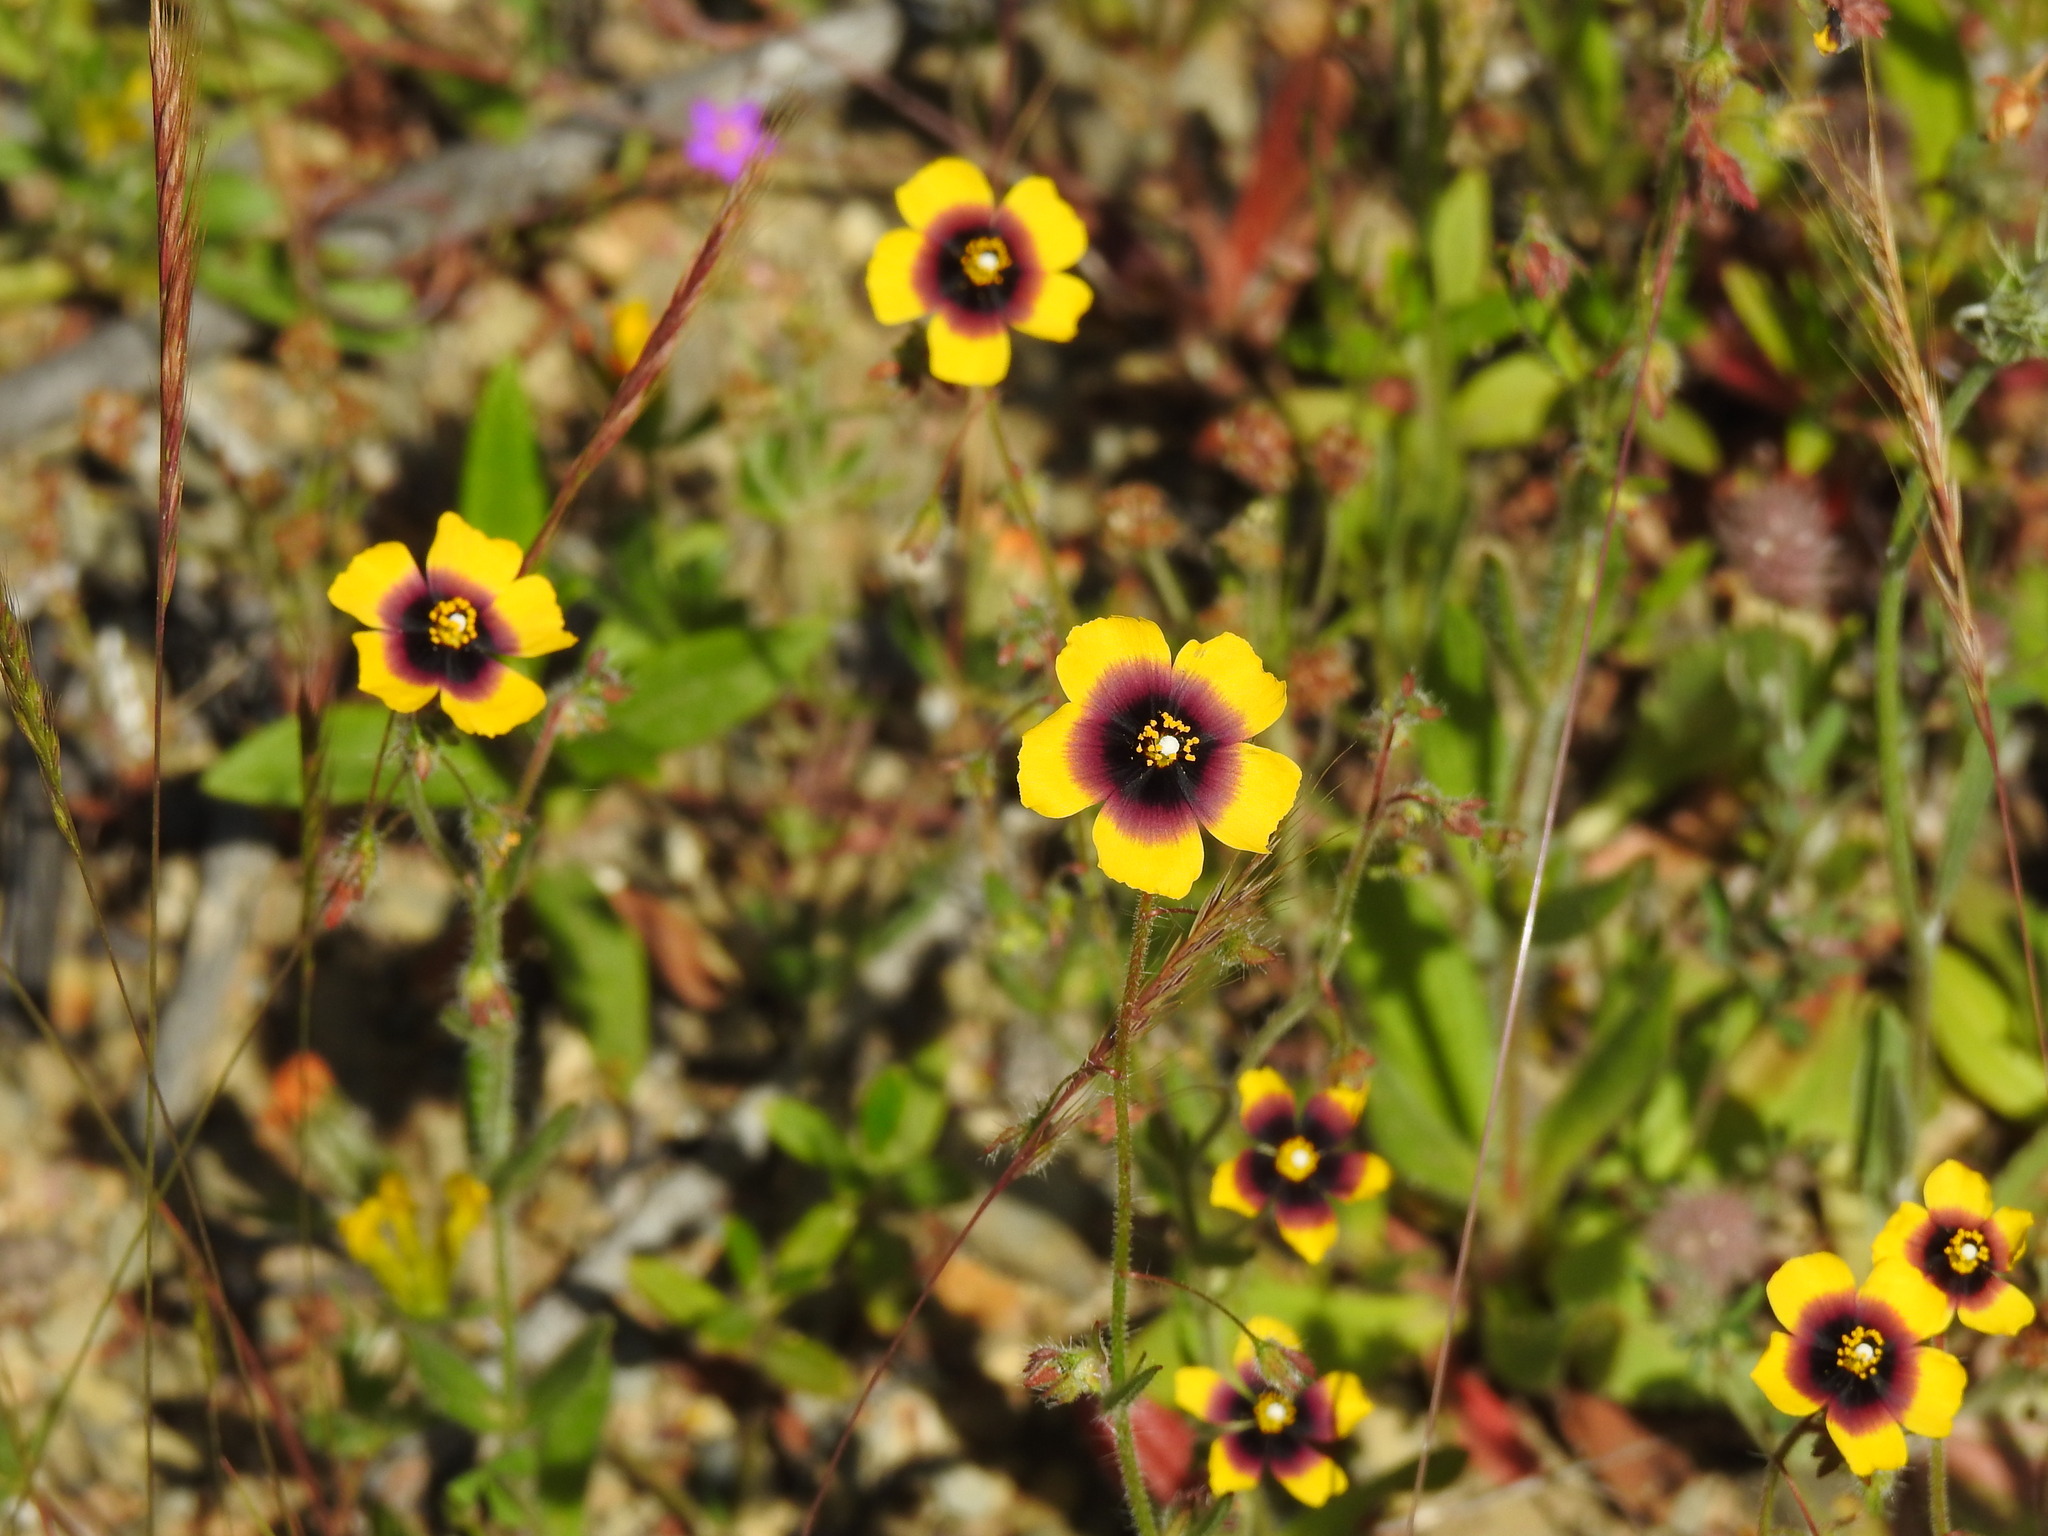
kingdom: Plantae
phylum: Tracheophyta
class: Magnoliopsida
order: Malvales
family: Cistaceae
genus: Tuberaria
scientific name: Tuberaria guttata
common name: Spotted rock-rose
